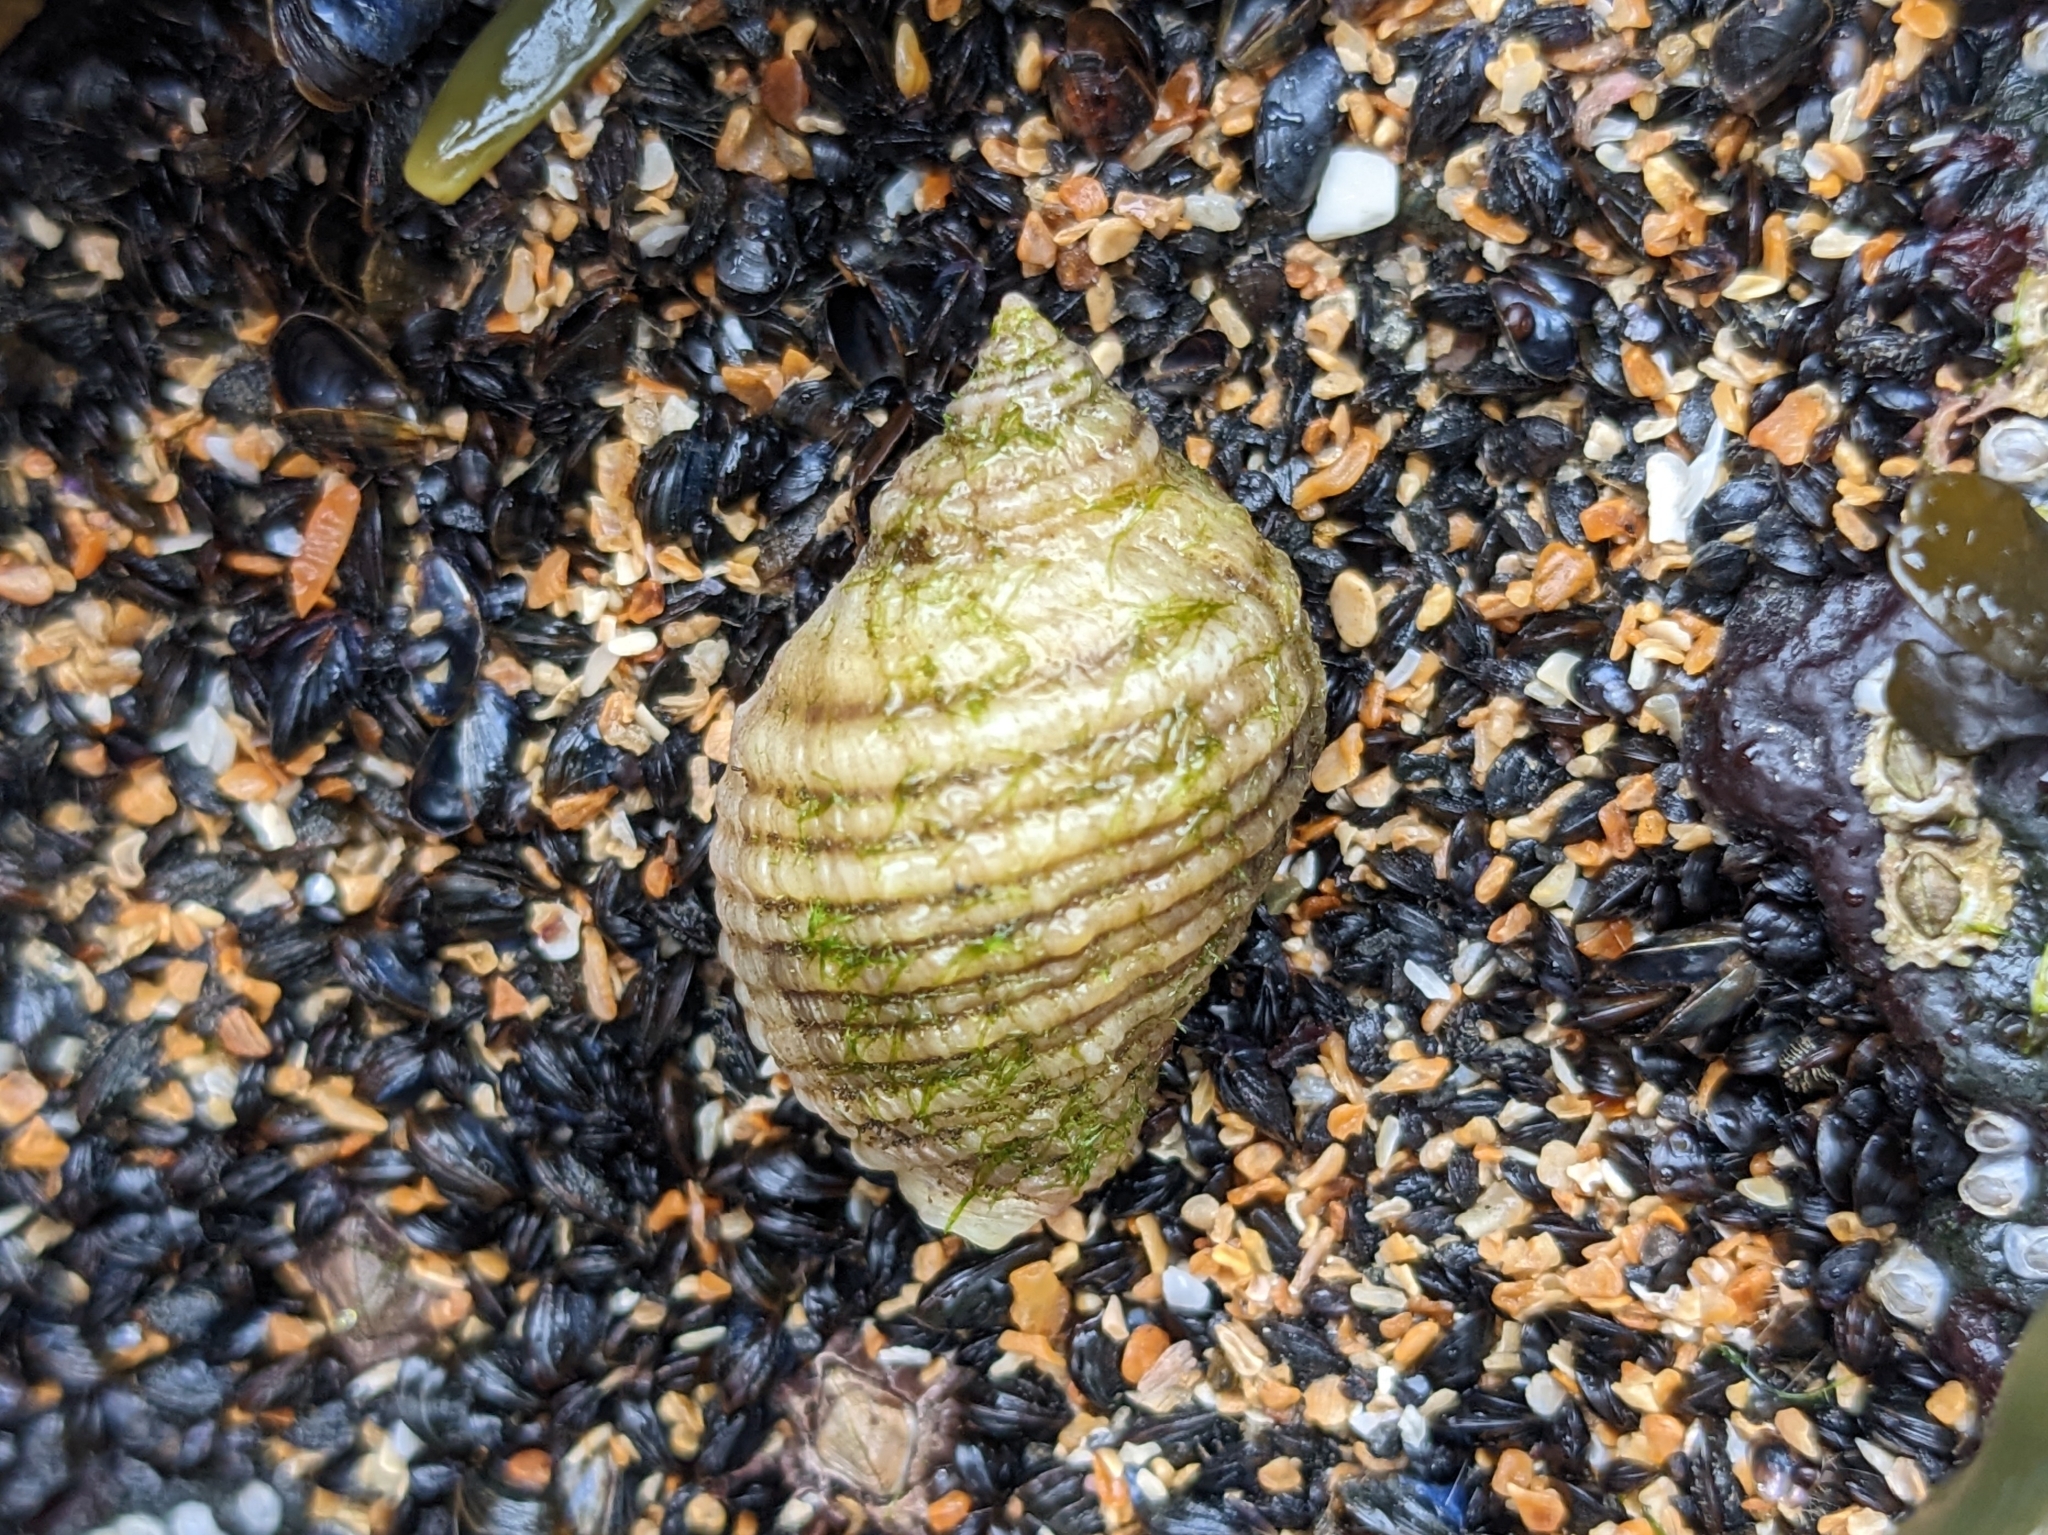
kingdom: Animalia
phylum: Mollusca
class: Gastropoda
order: Neogastropoda
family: Muricidae
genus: Nucella
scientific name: Nucella lapillus
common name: Dog whelk
